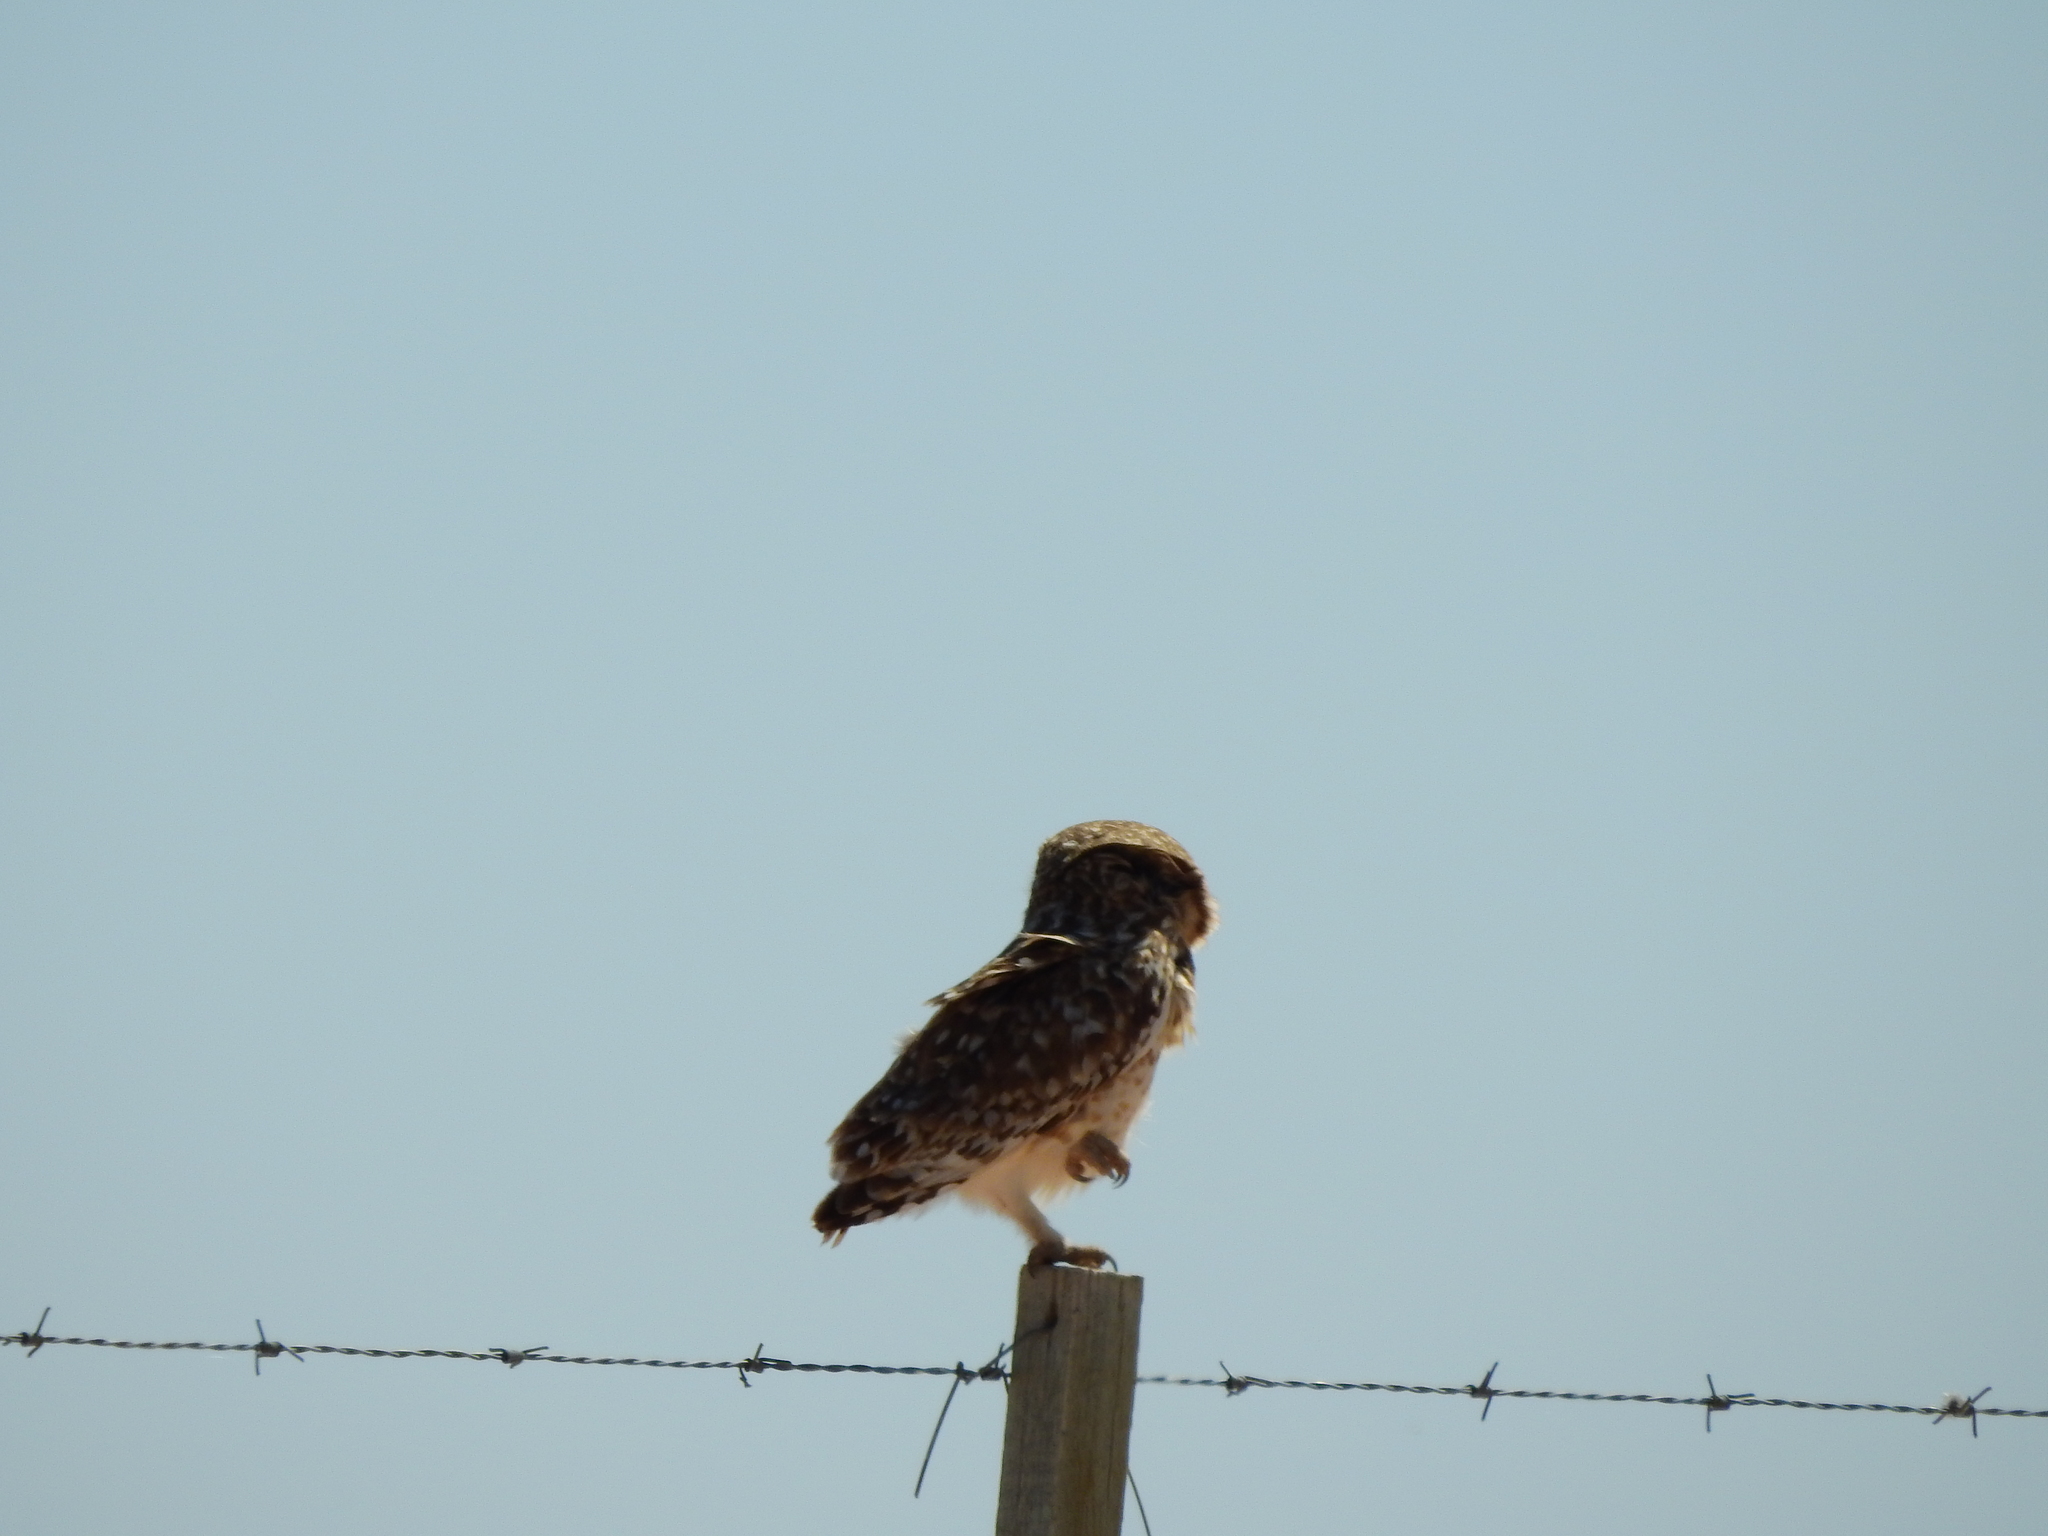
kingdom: Animalia
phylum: Chordata
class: Aves
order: Strigiformes
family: Strigidae
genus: Athene
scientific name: Athene cunicularia
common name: Burrowing owl
